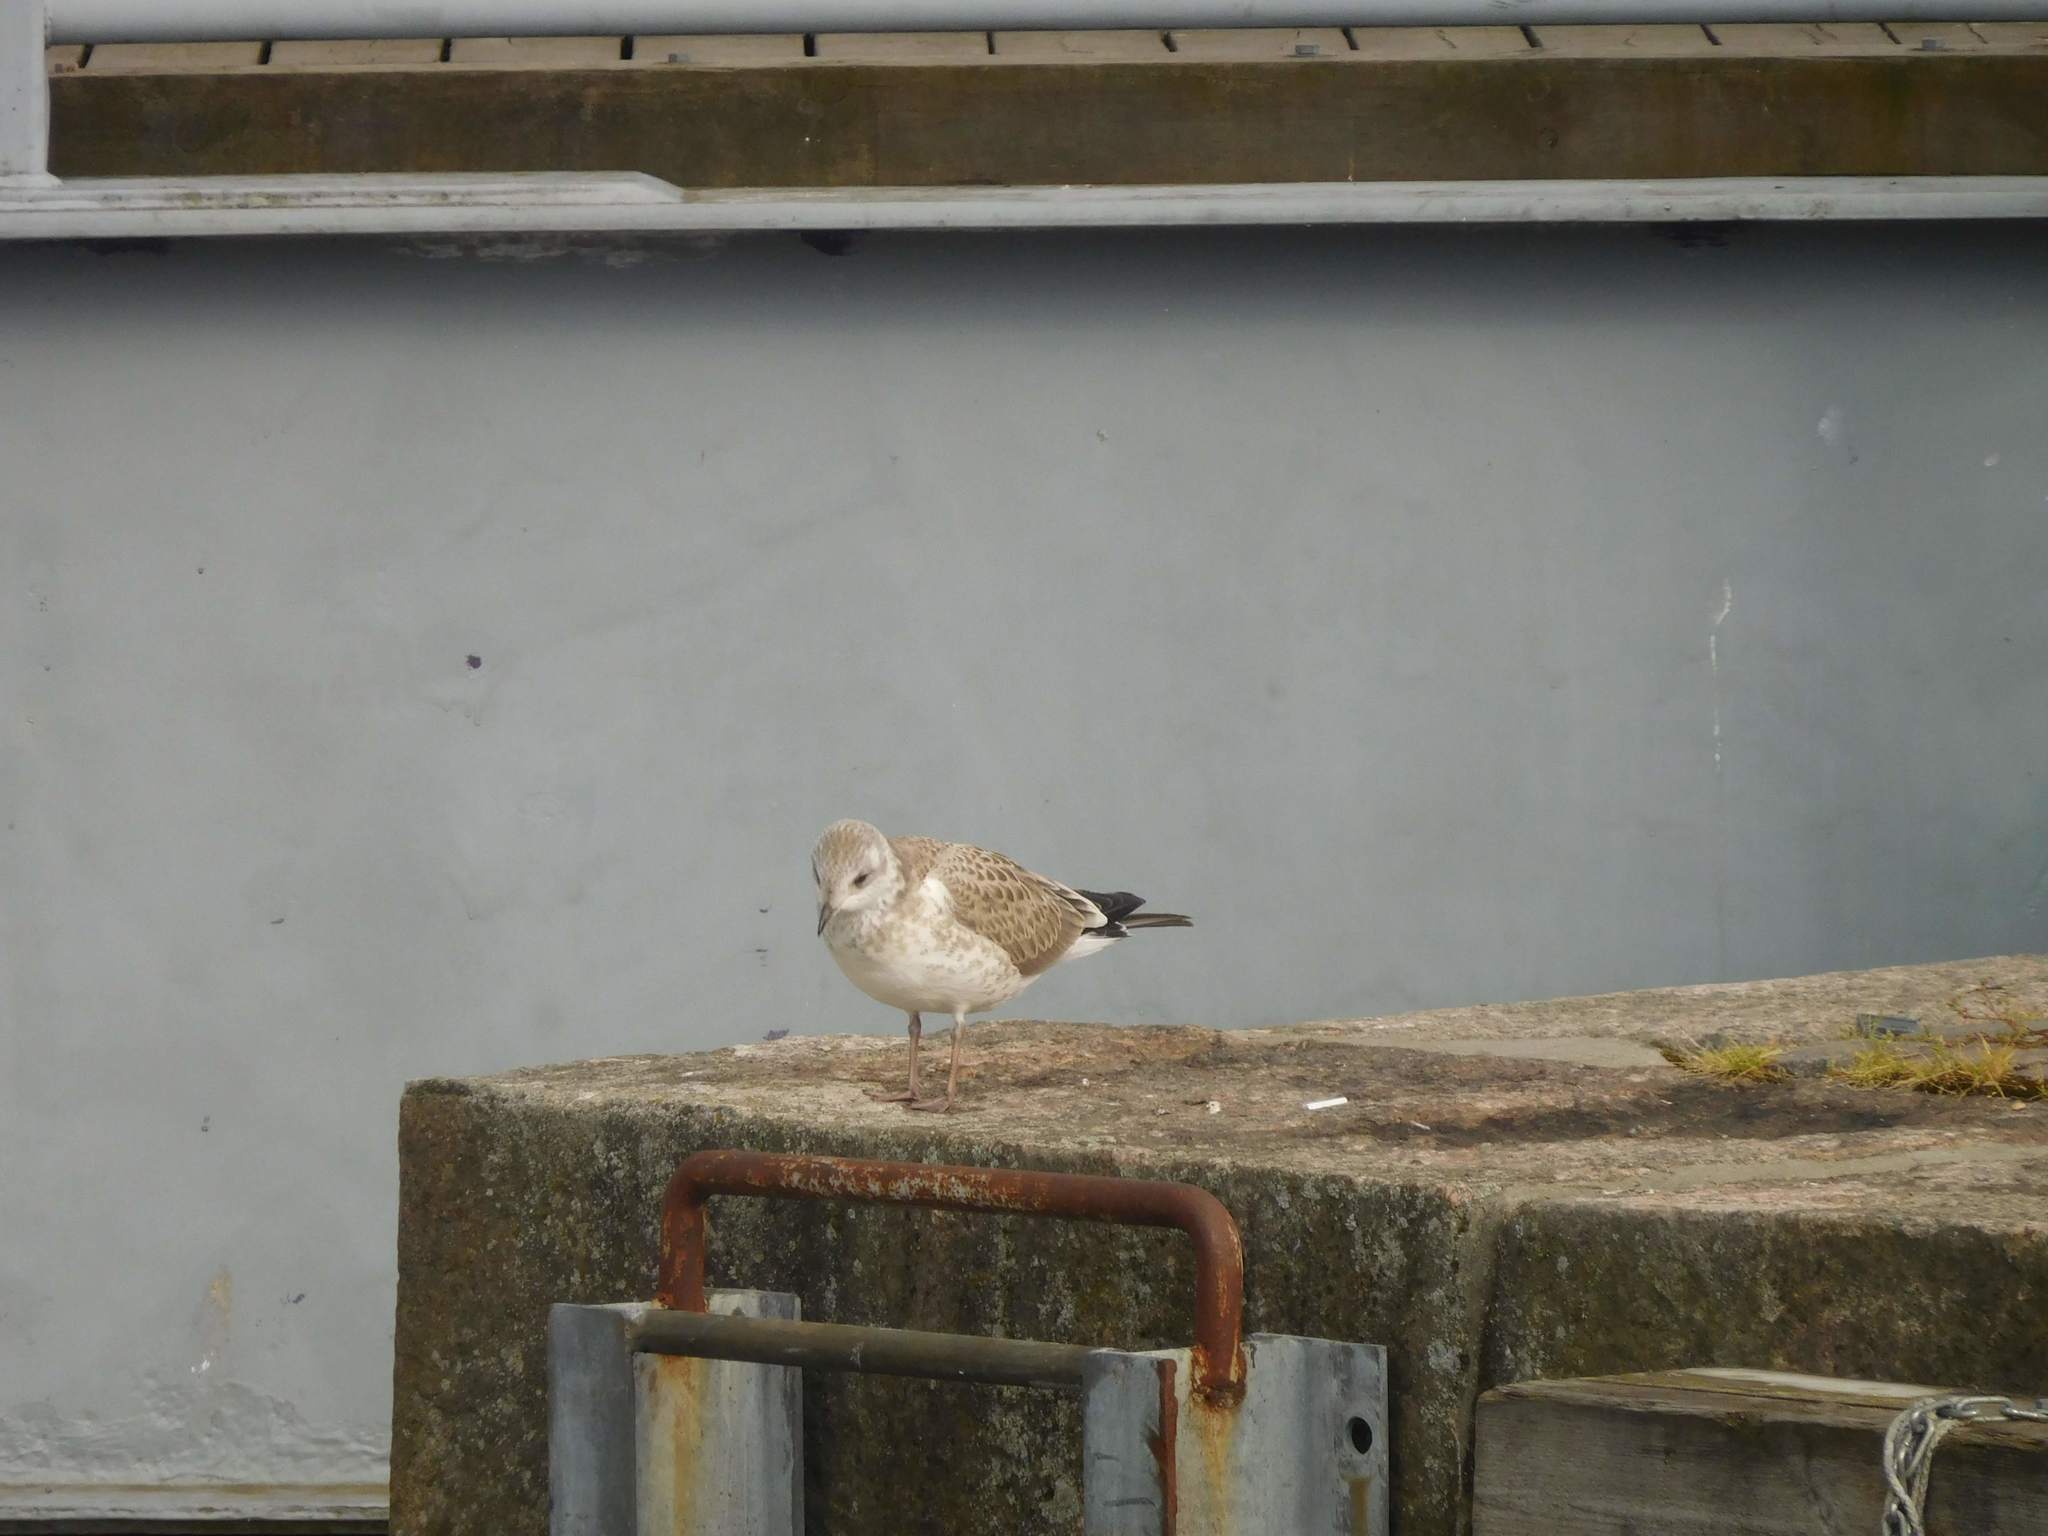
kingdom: Animalia
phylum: Chordata
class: Aves
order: Charadriiformes
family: Laridae
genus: Larus
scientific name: Larus canus
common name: Mew gull
